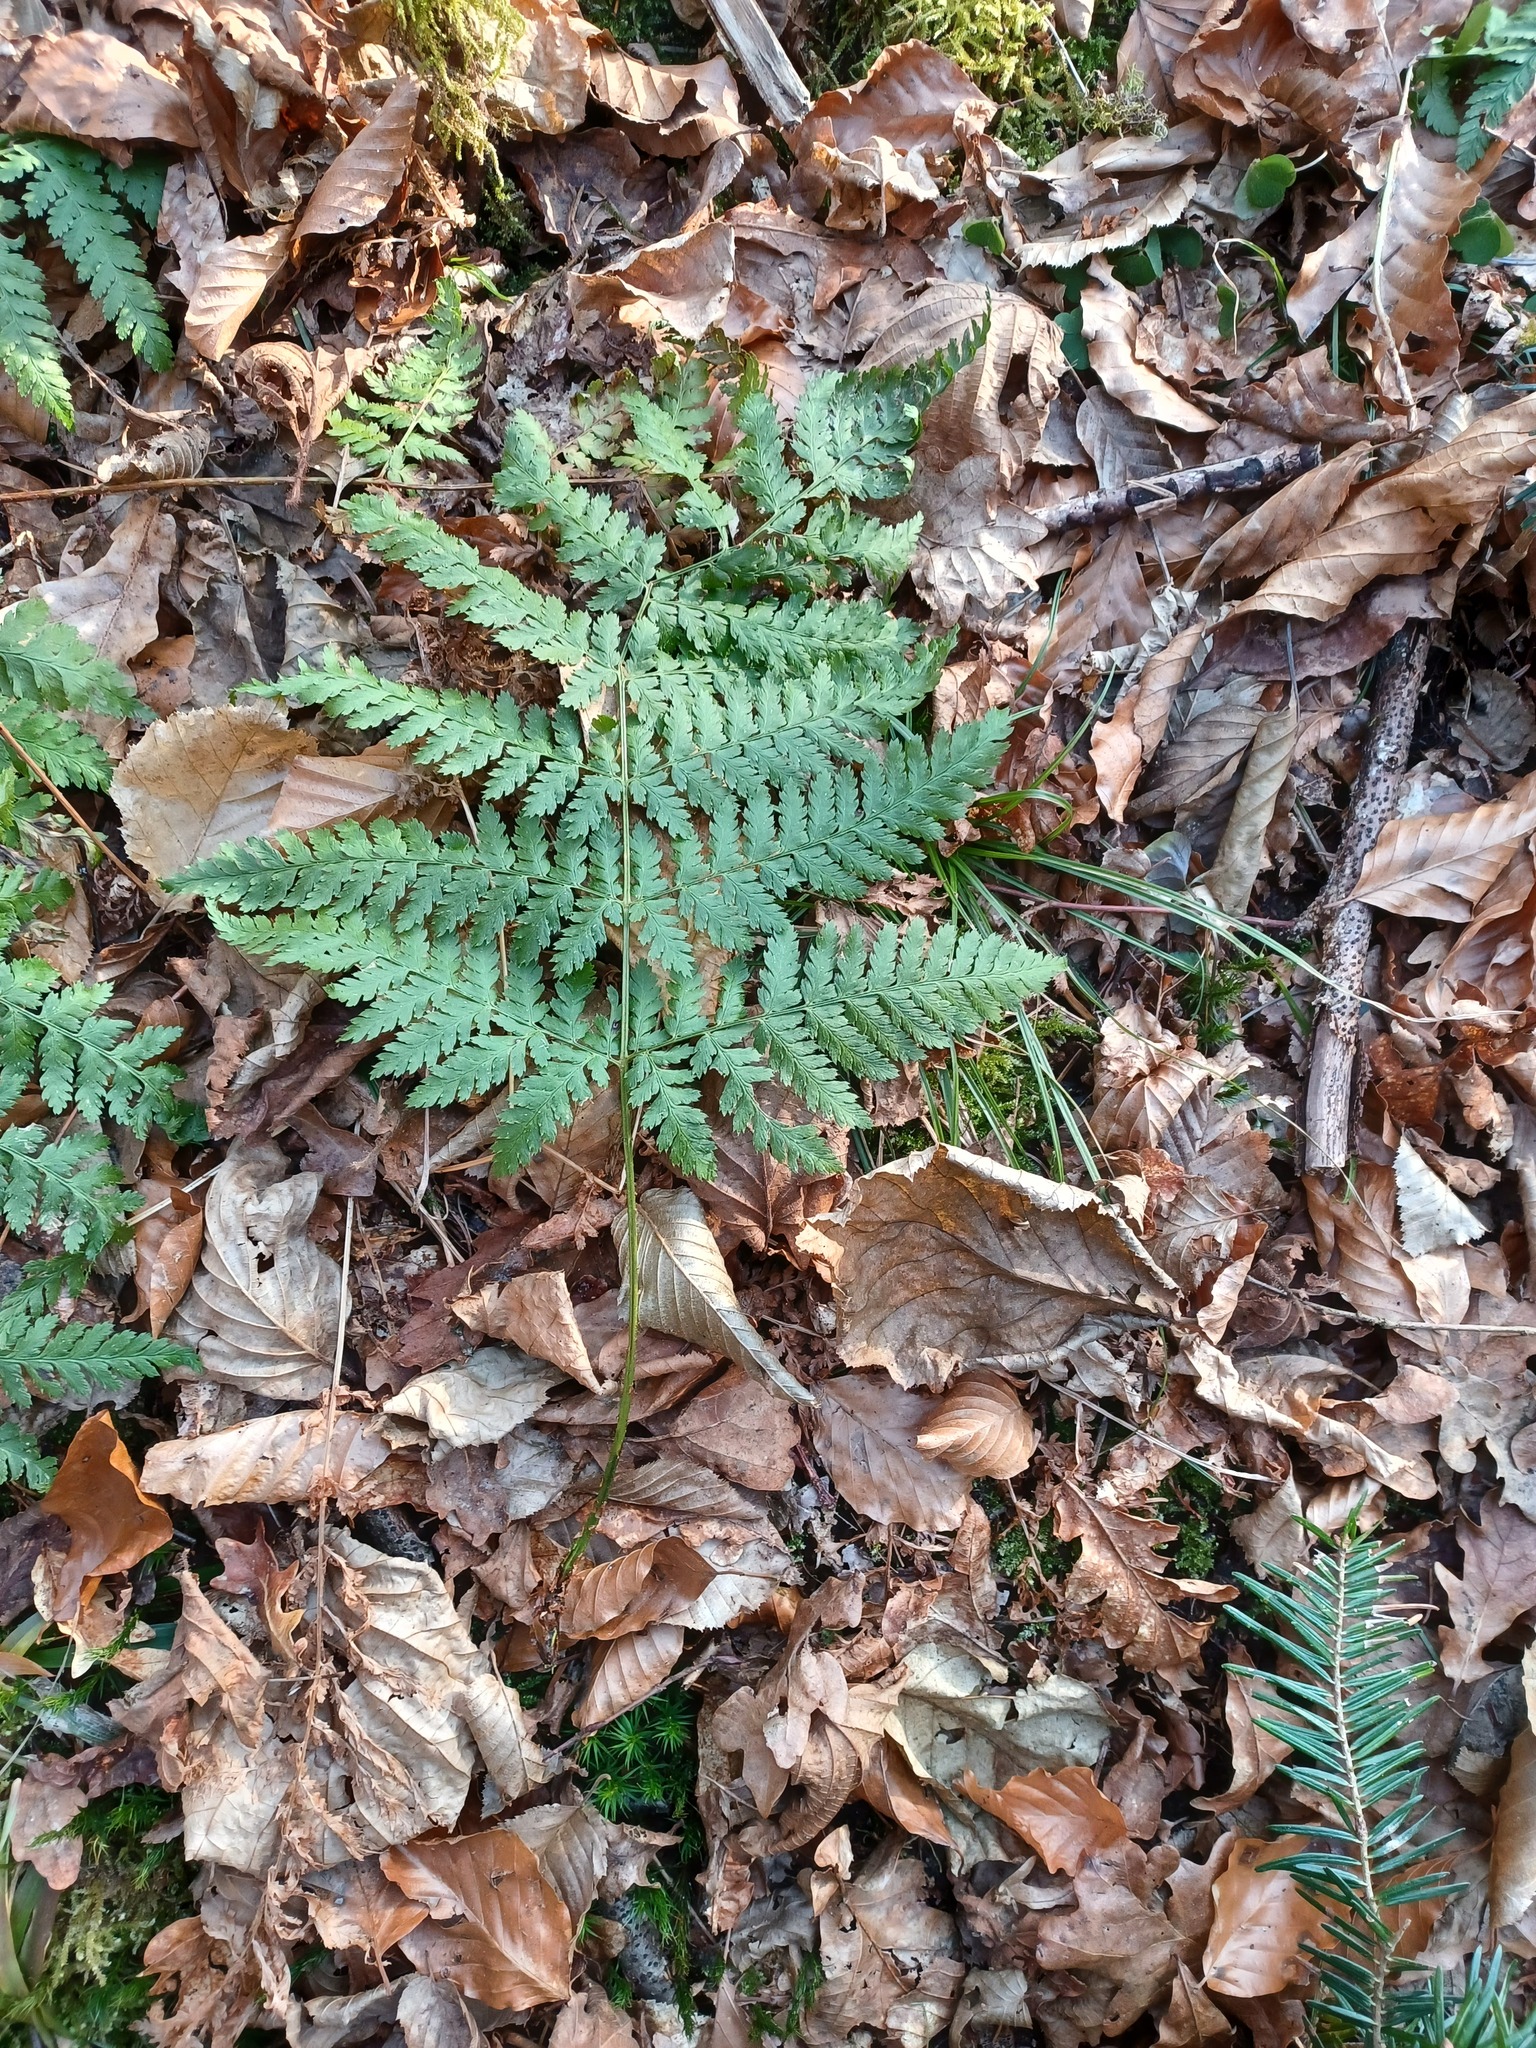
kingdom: Plantae
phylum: Tracheophyta
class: Polypodiopsida
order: Polypodiales
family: Dryopteridaceae
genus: Dryopteris
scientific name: Dryopteris dilatata
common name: Broad buckler-fern
